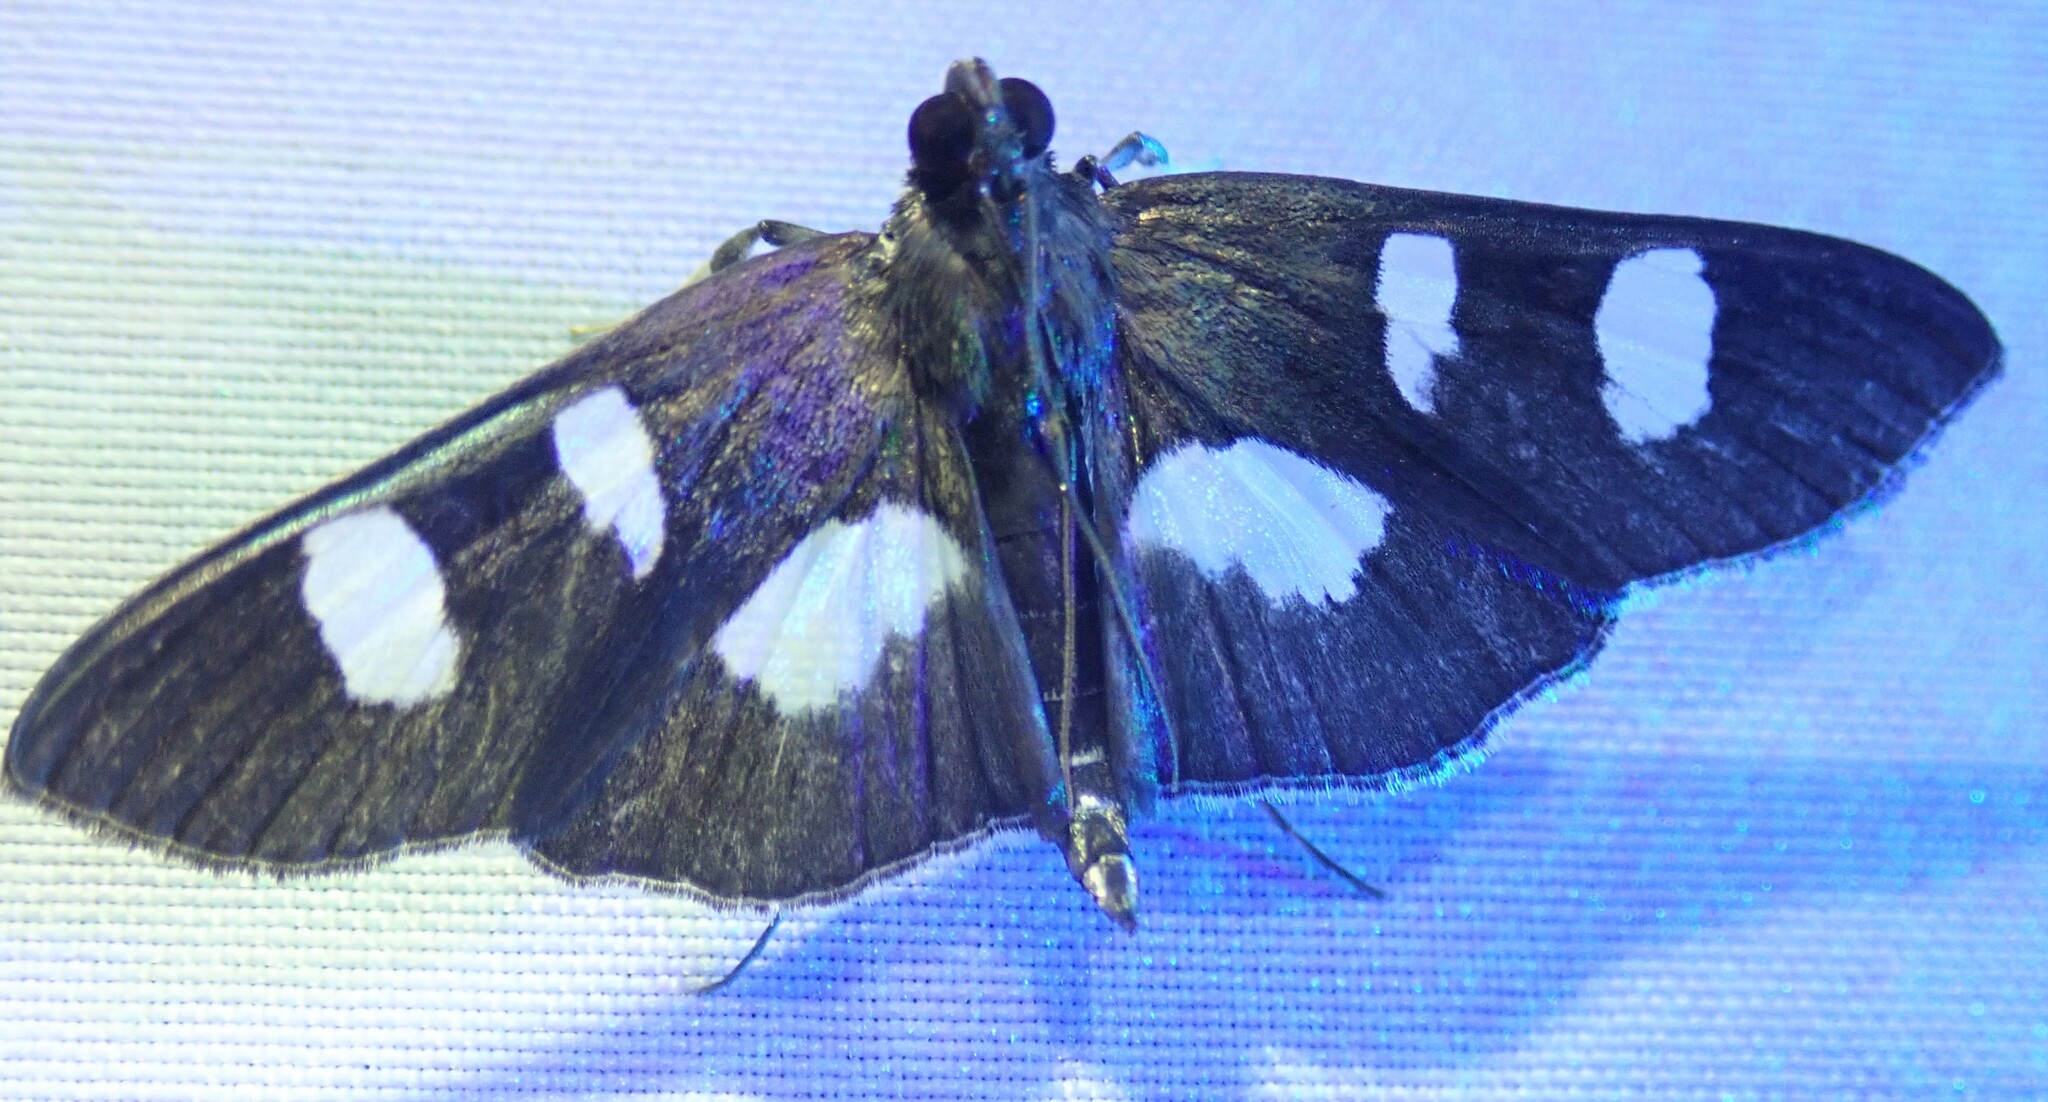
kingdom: Animalia
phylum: Arthropoda
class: Insecta
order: Lepidoptera
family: Crambidae
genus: Desmia
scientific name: Desmia
